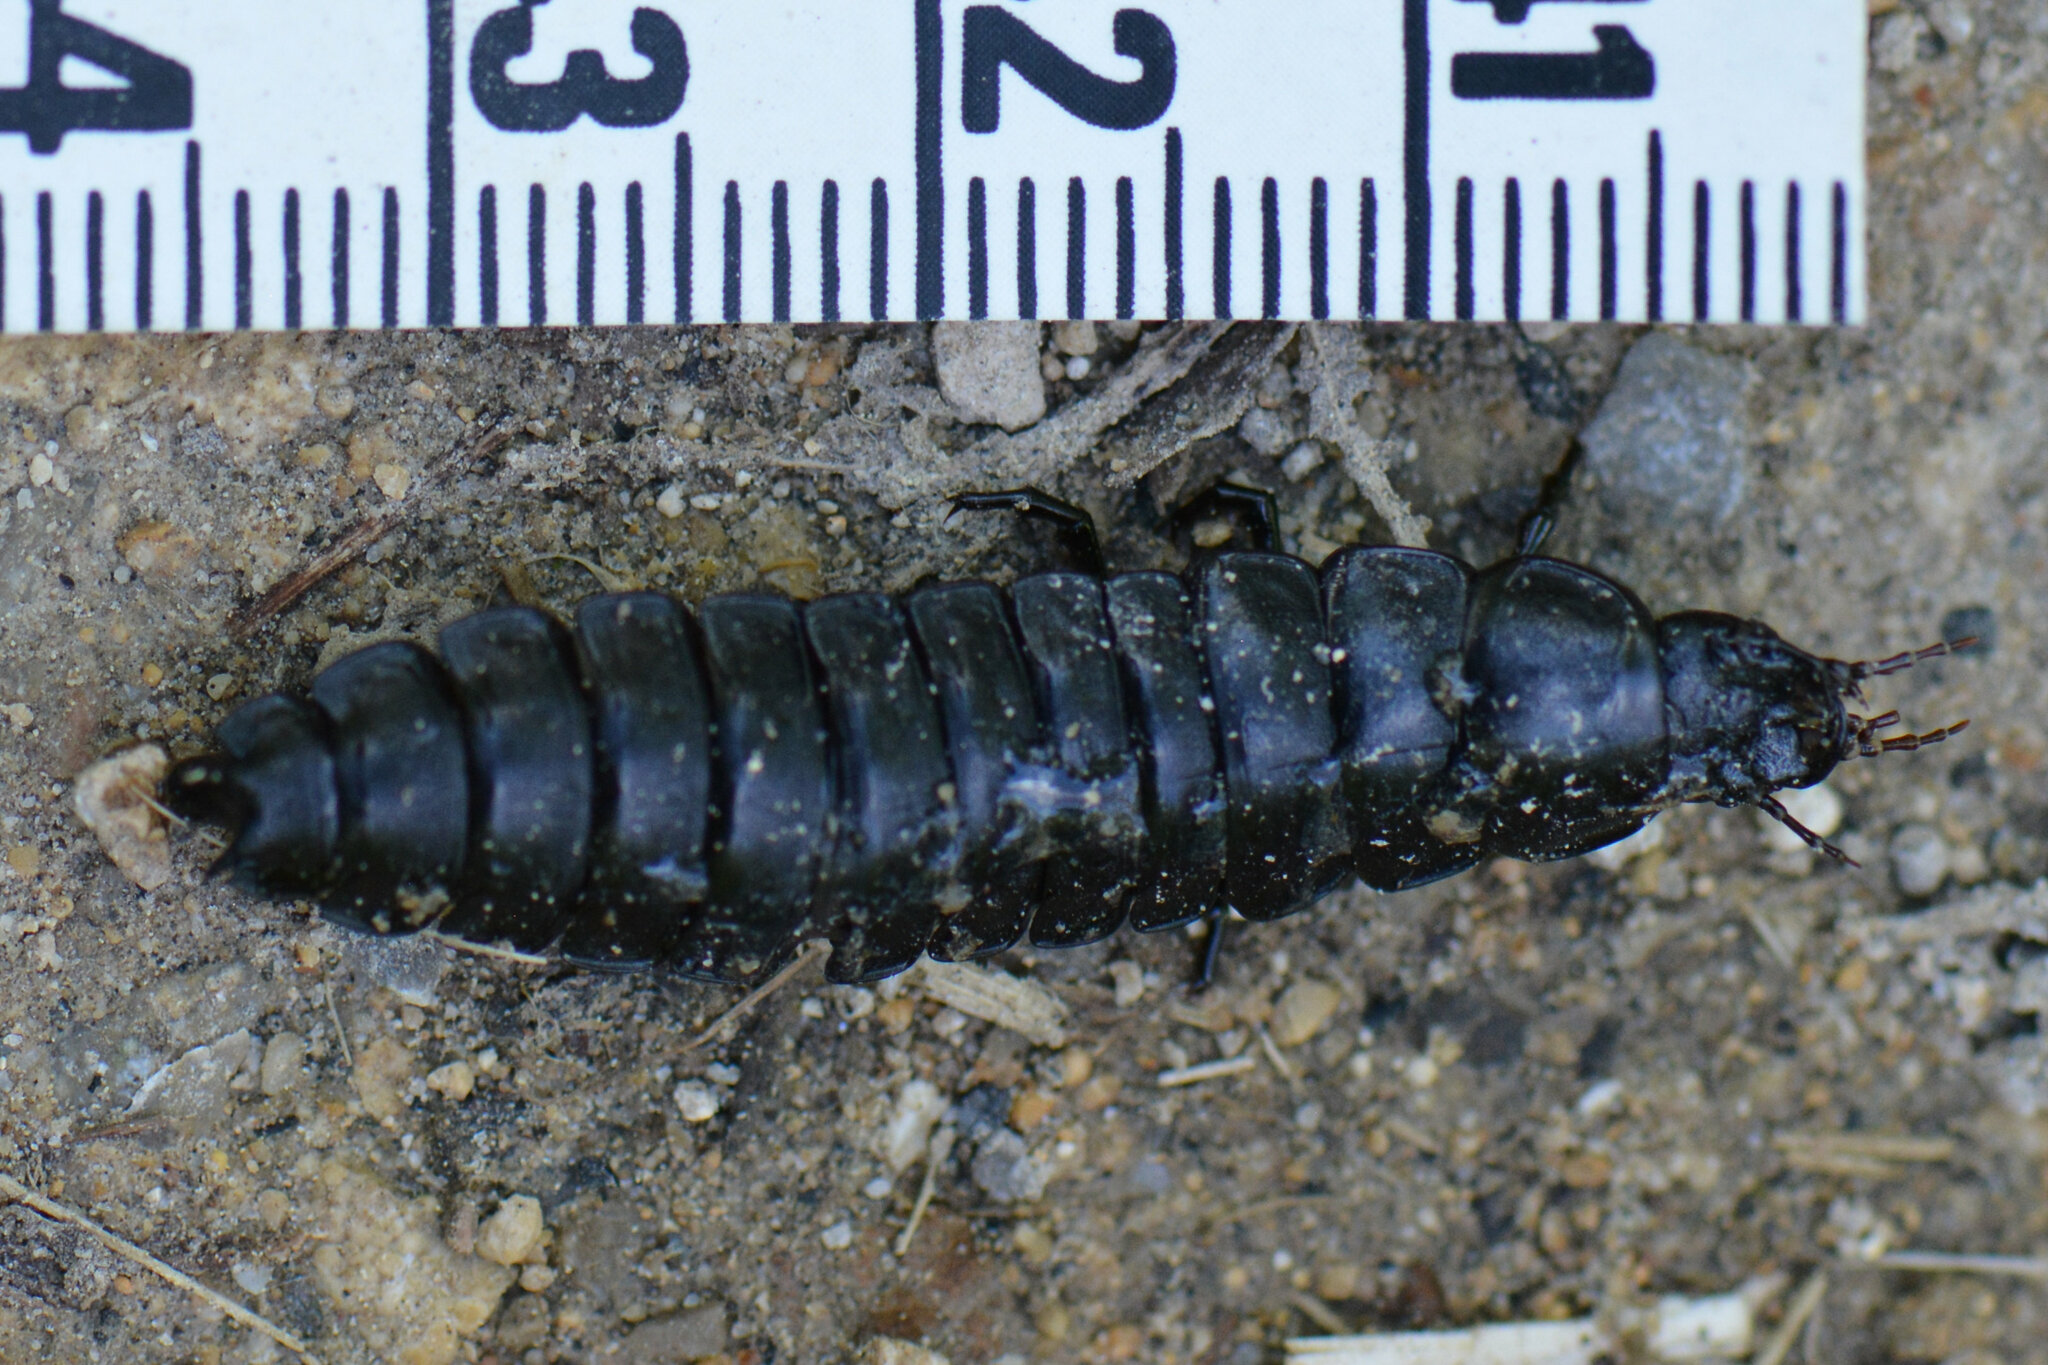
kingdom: Animalia
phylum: Arthropoda
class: Insecta
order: Coleoptera
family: Carabidae
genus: Carabus
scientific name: Carabus
